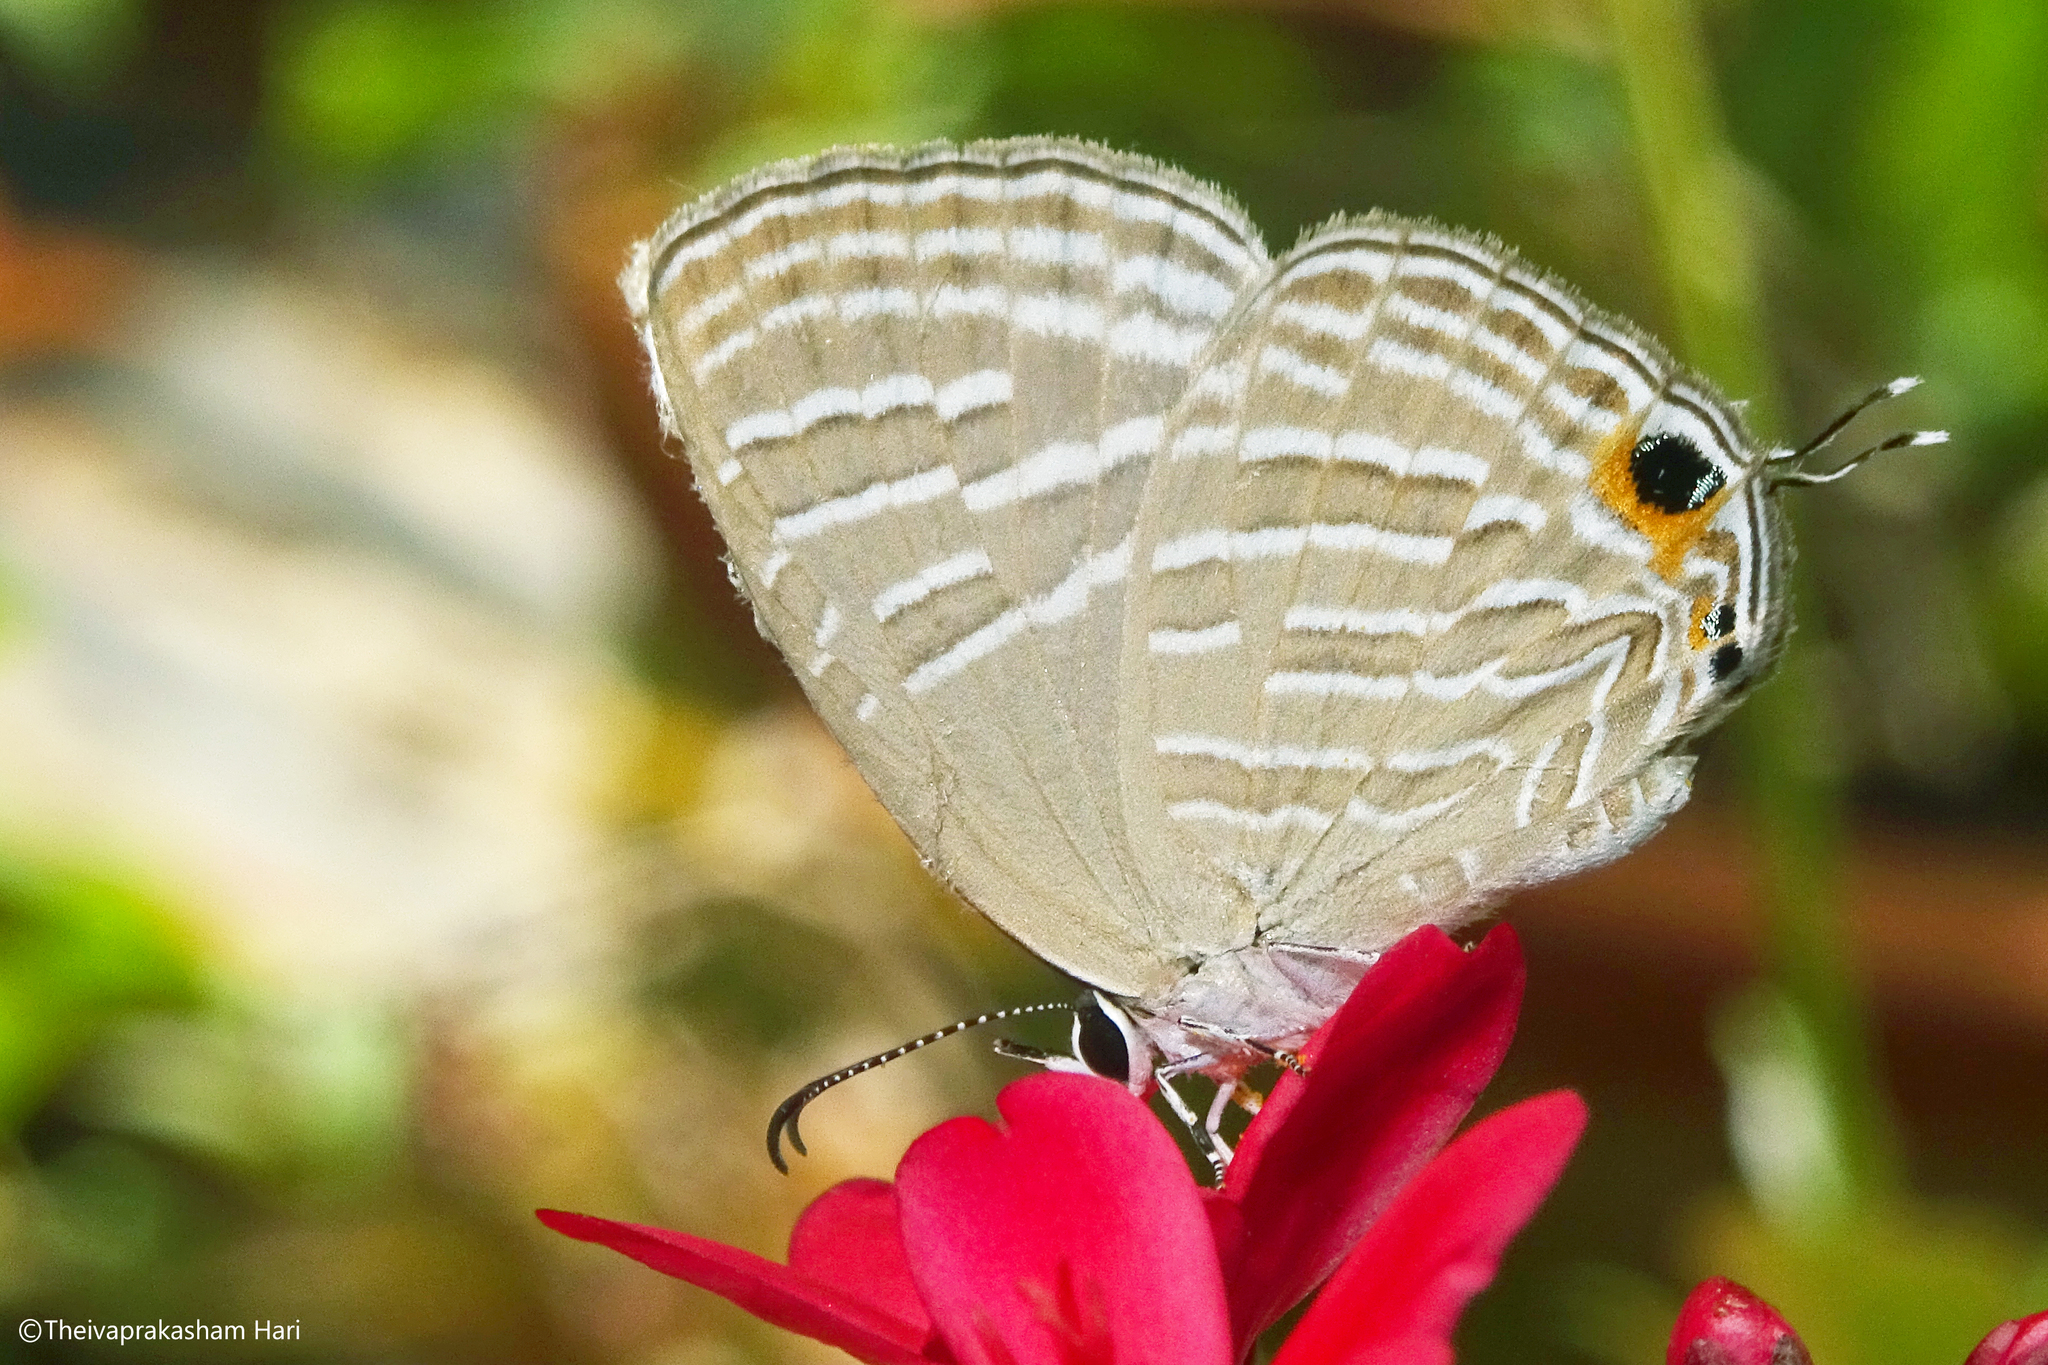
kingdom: Animalia
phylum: Arthropoda
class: Insecta
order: Lepidoptera
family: Lycaenidae
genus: Jamides
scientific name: Jamides celeno
